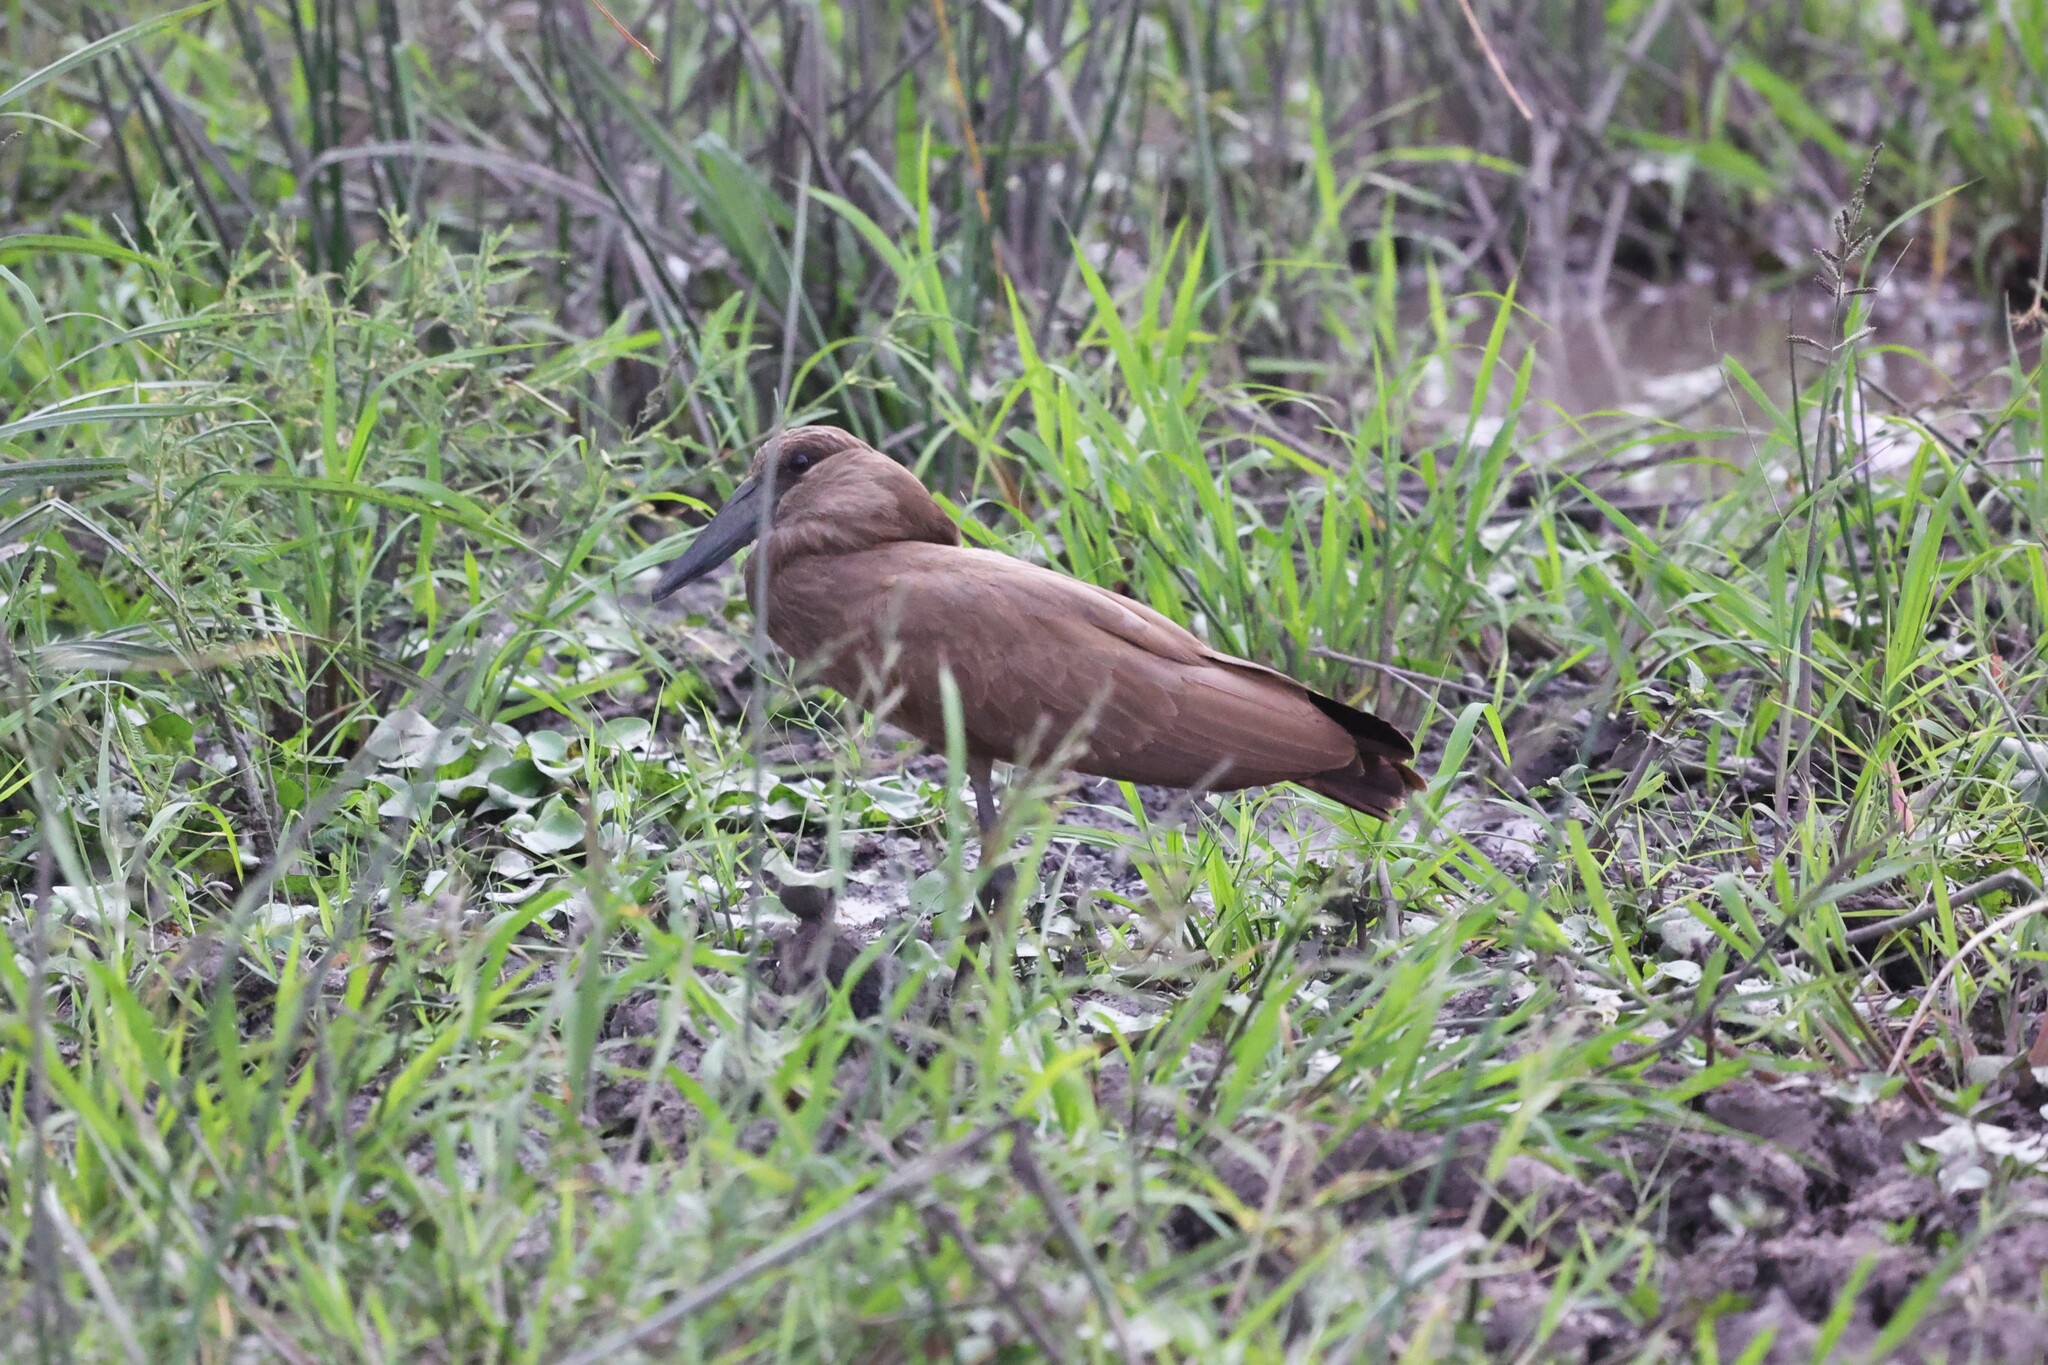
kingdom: Animalia
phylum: Chordata
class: Aves
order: Pelecaniformes
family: Scopidae
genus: Scopus
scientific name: Scopus umbretta
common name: Hamerkop
